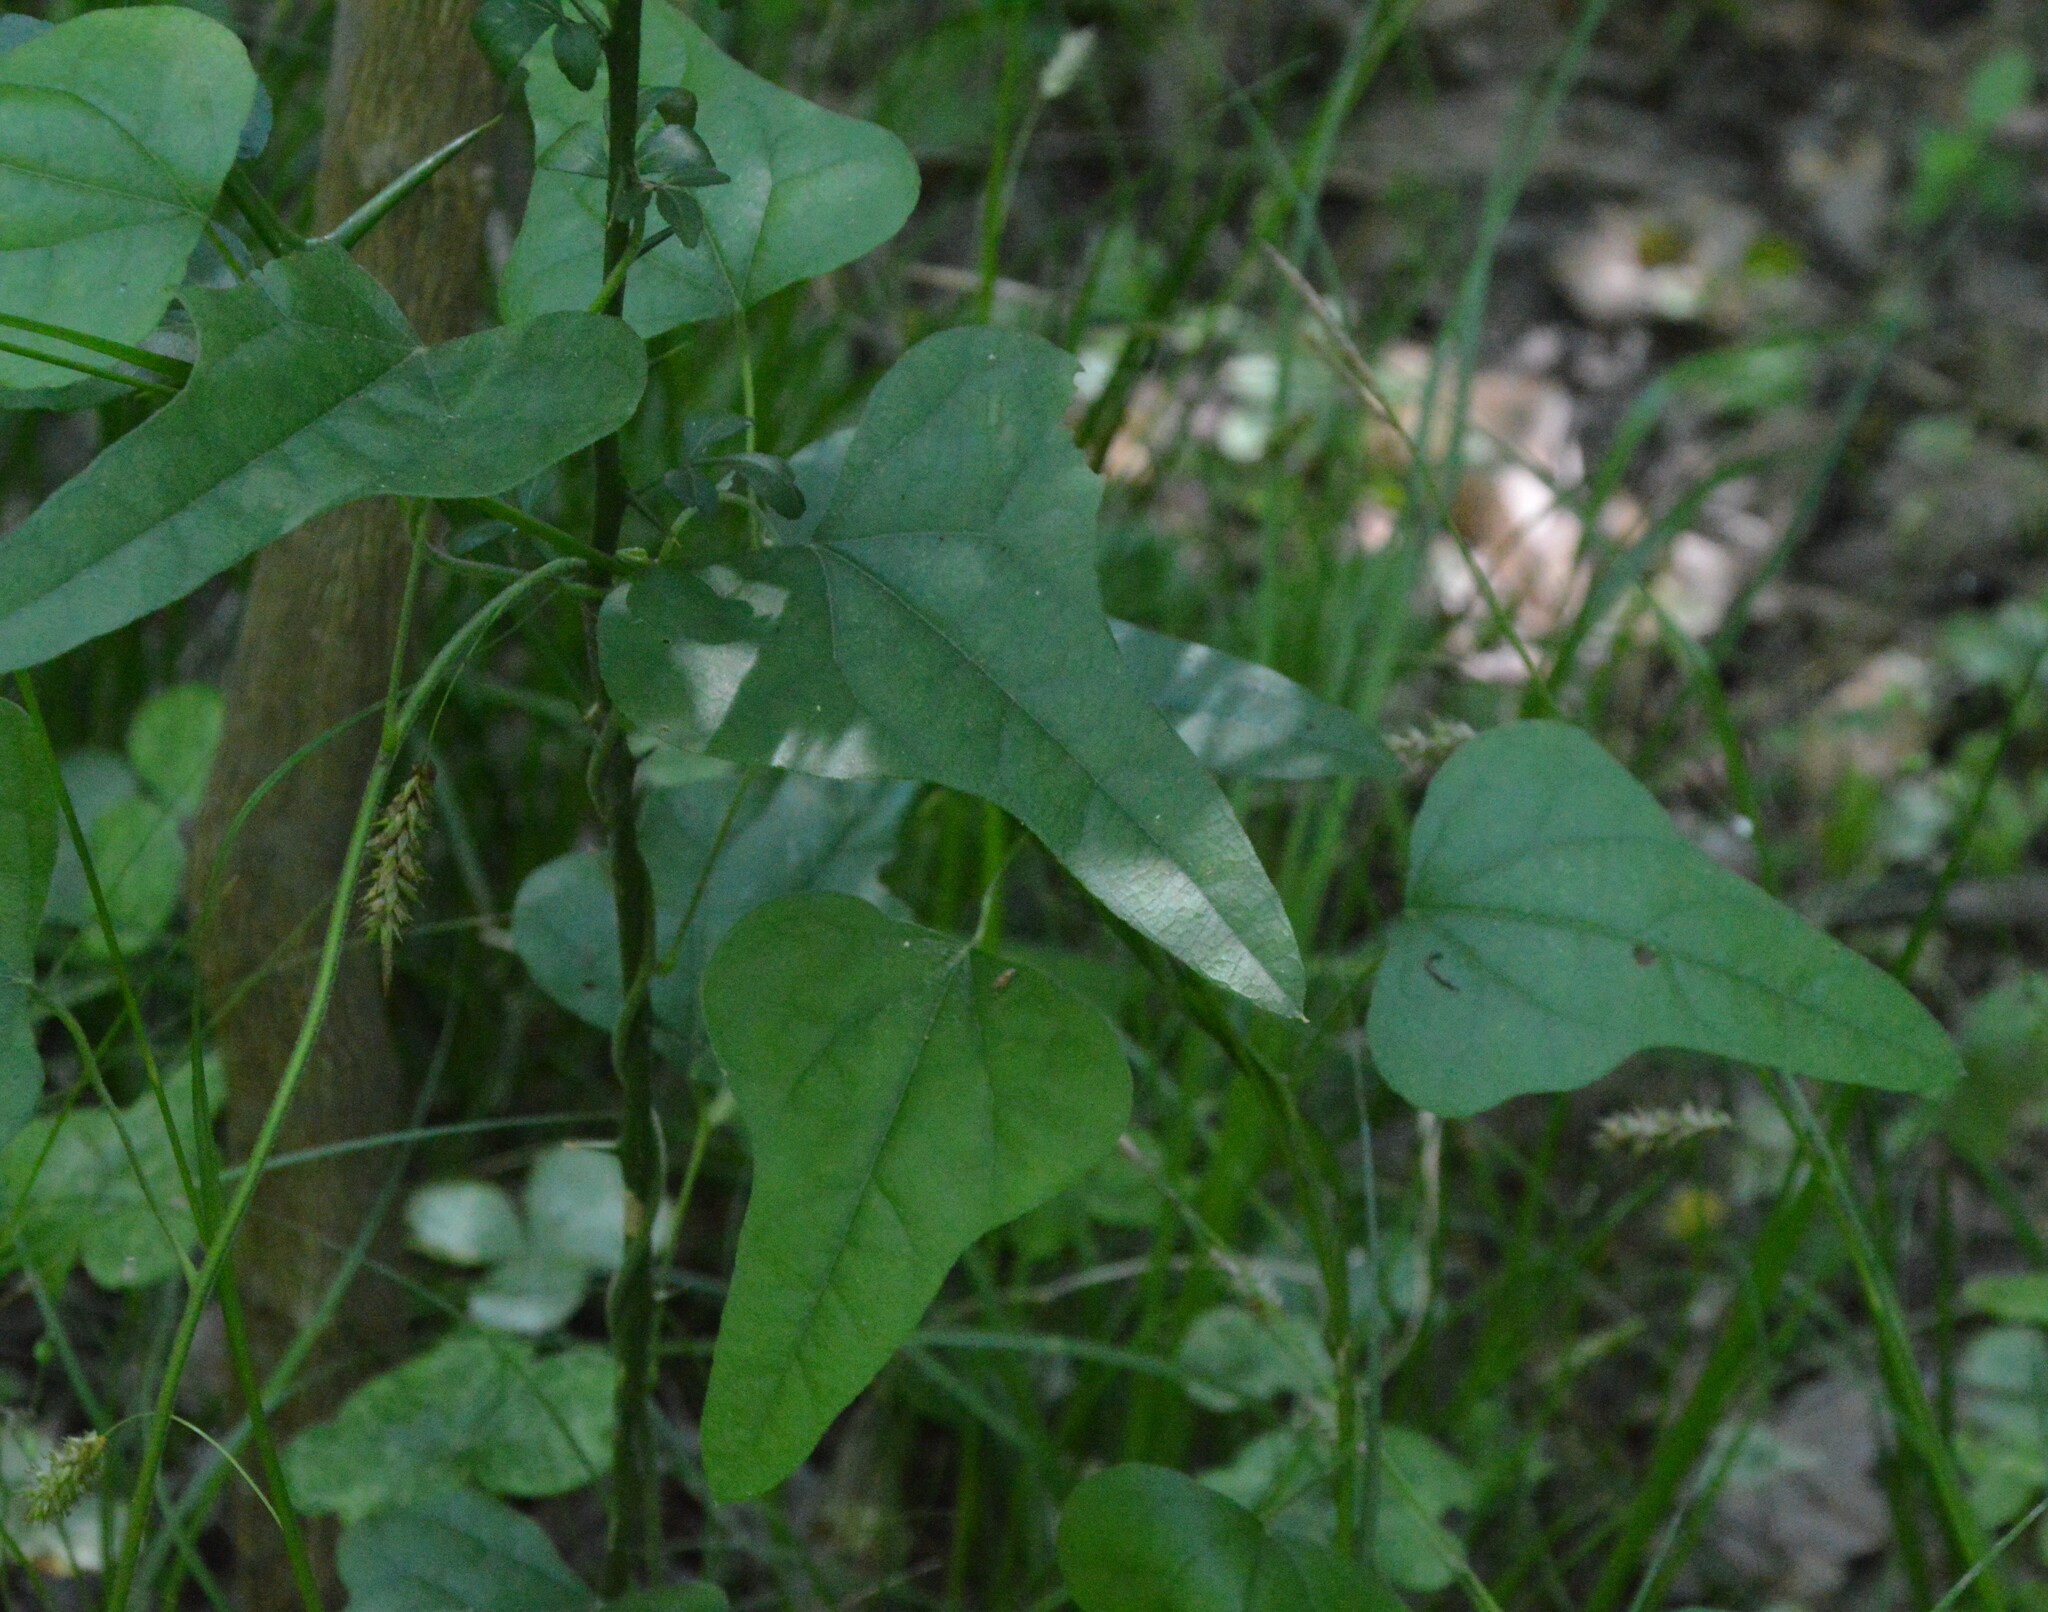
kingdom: Plantae
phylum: Tracheophyta
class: Magnoliopsida
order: Ranunculales
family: Menispermaceae
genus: Cocculus
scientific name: Cocculus carolinus
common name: Carolina moonseed
